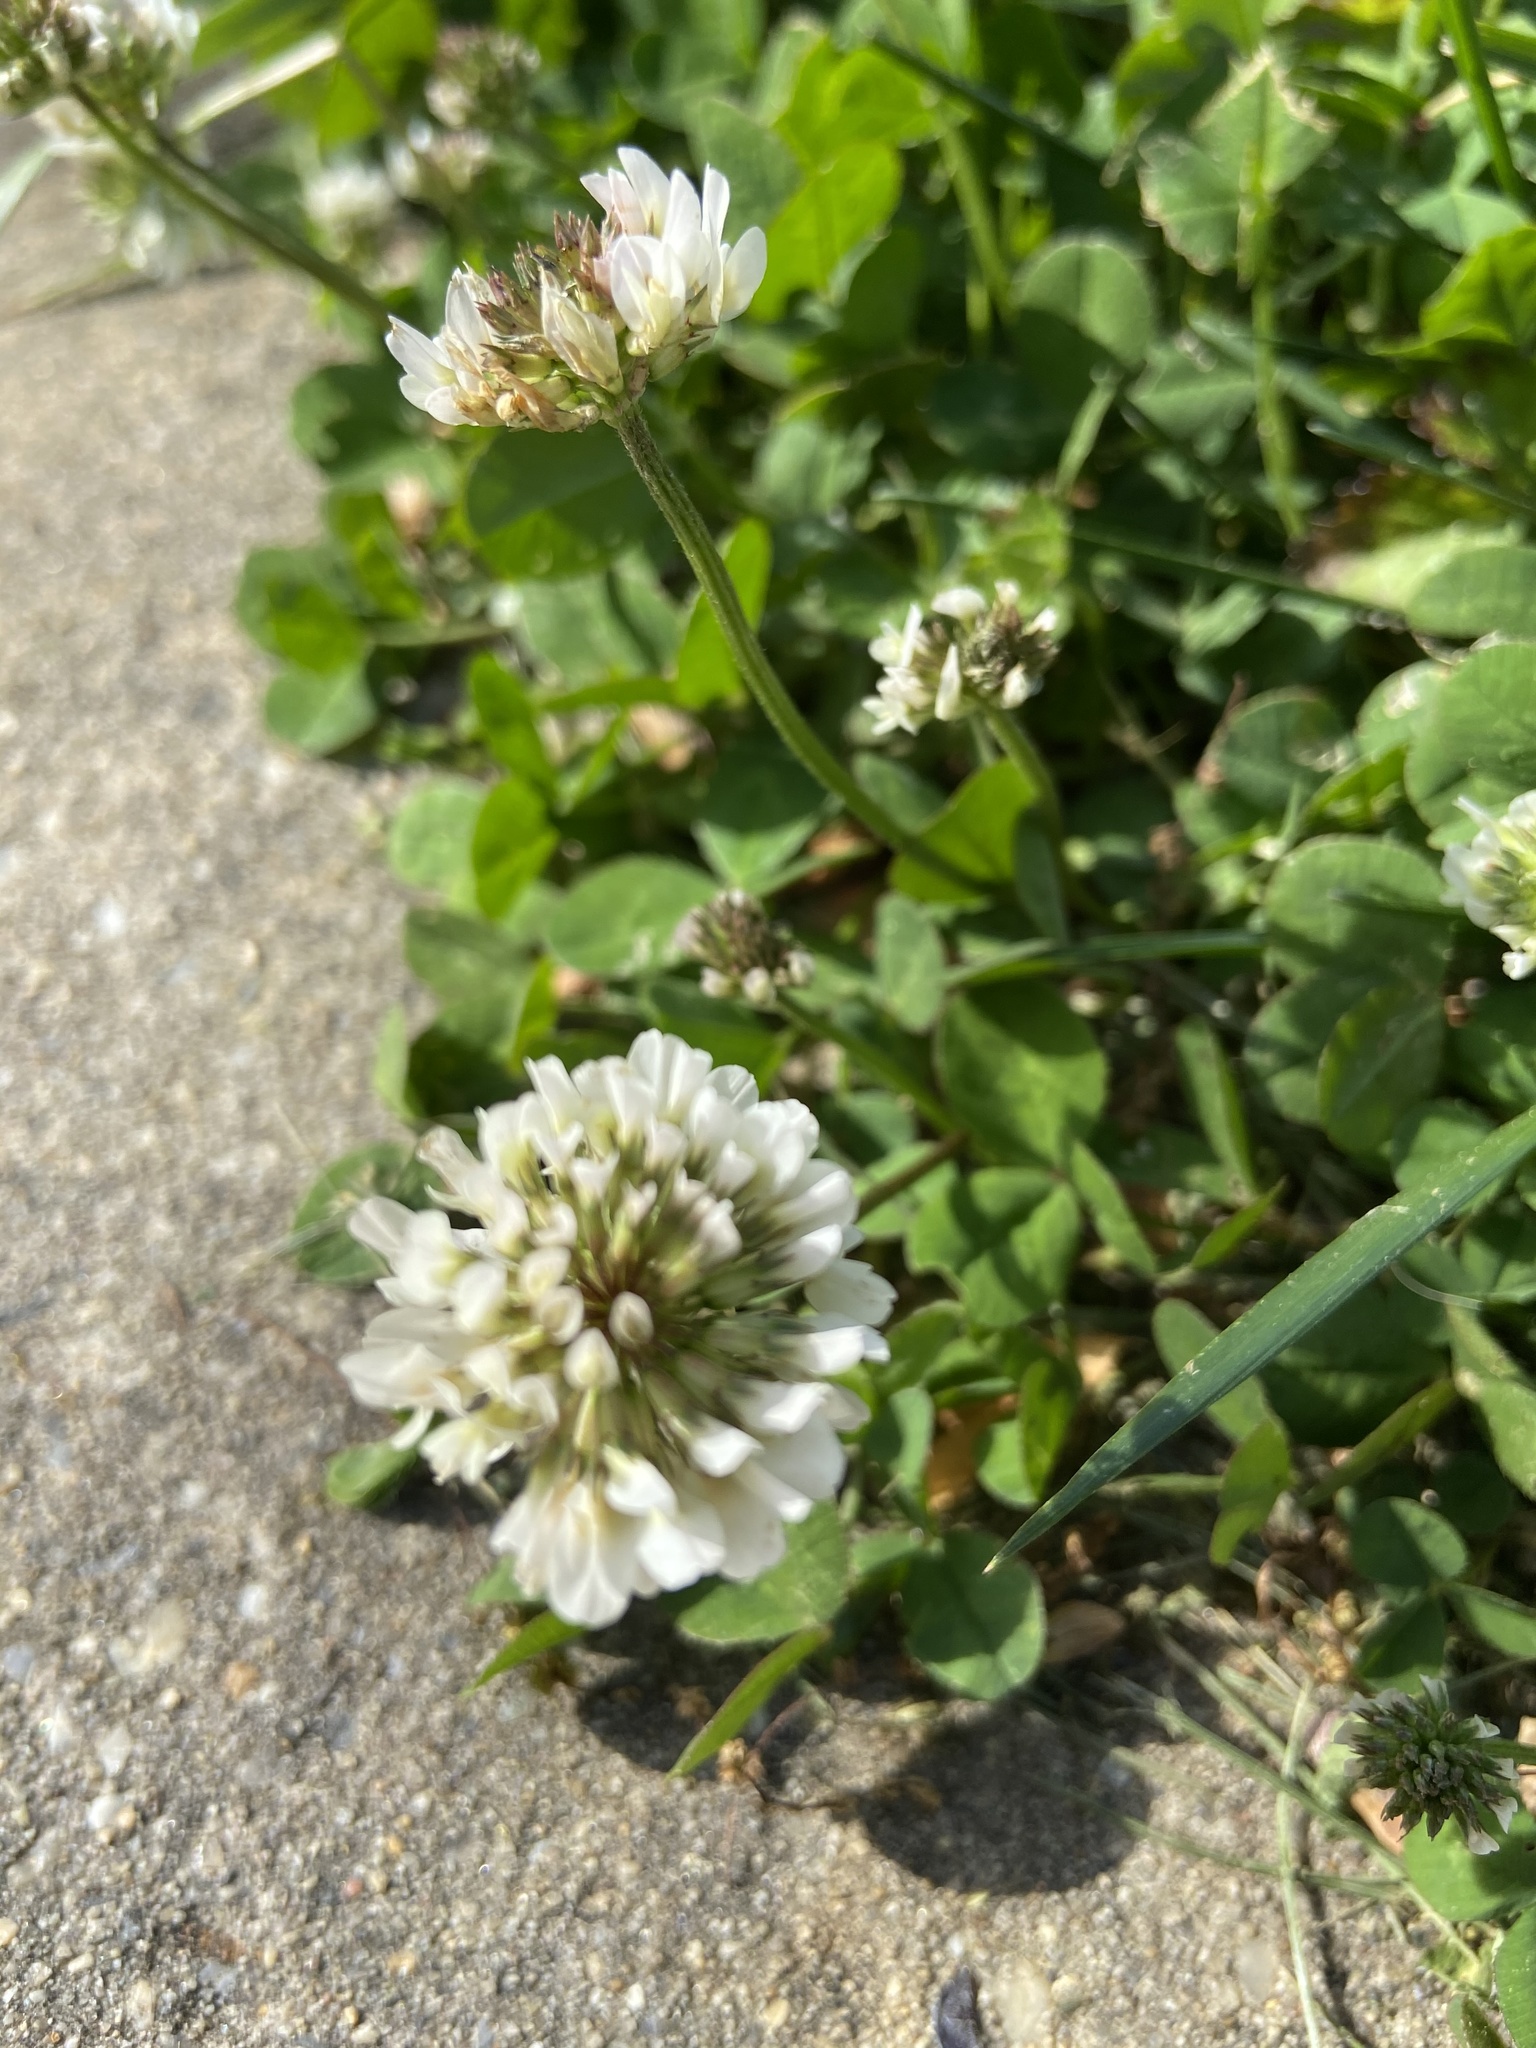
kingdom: Plantae
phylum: Tracheophyta
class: Magnoliopsida
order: Fabales
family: Fabaceae
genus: Trifolium
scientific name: Trifolium repens
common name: White clover
